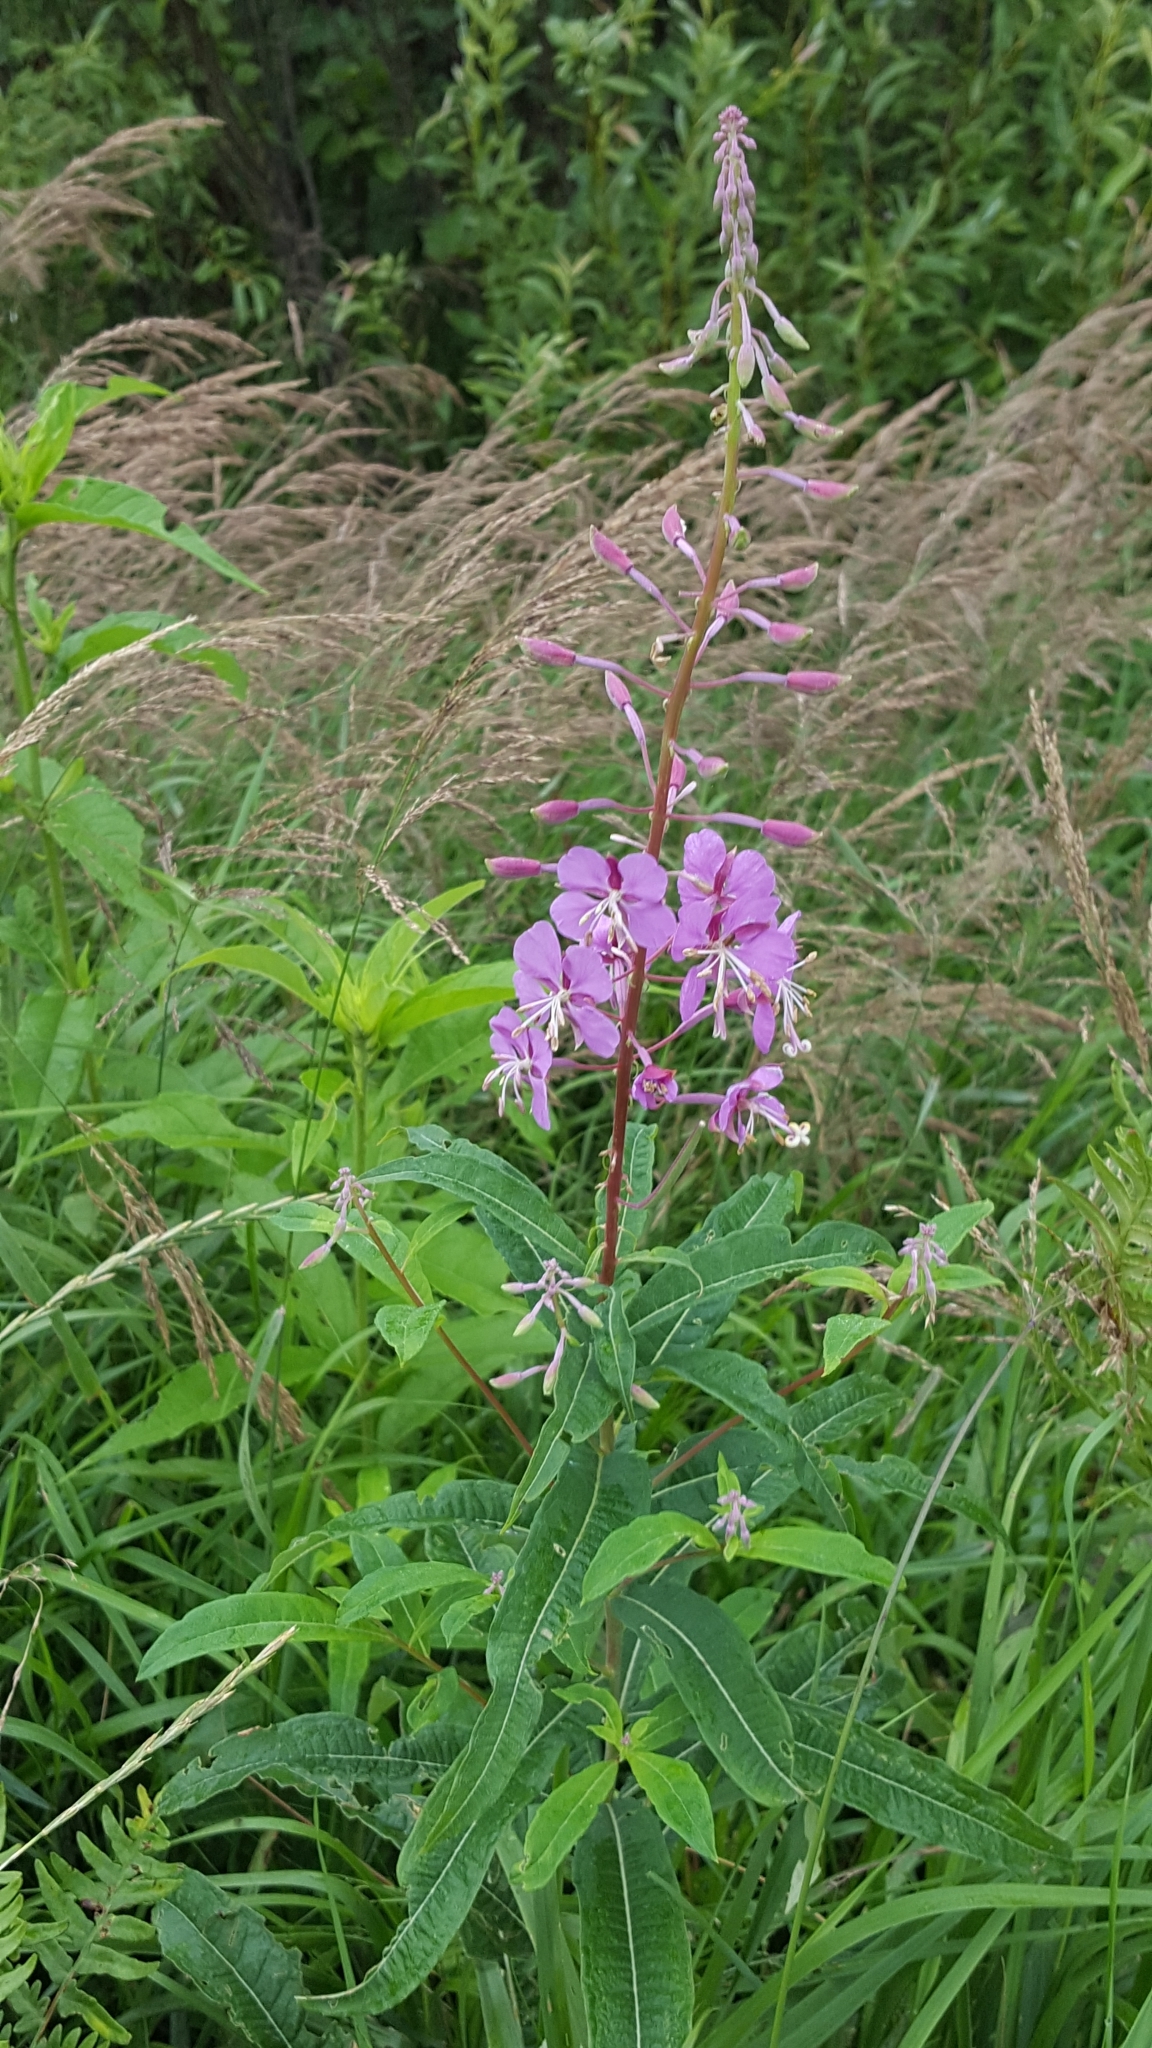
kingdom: Plantae
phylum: Tracheophyta
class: Magnoliopsida
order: Myrtales
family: Onagraceae
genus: Chamaenerion
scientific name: Chamaenerion angustifolium
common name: Fireweed
